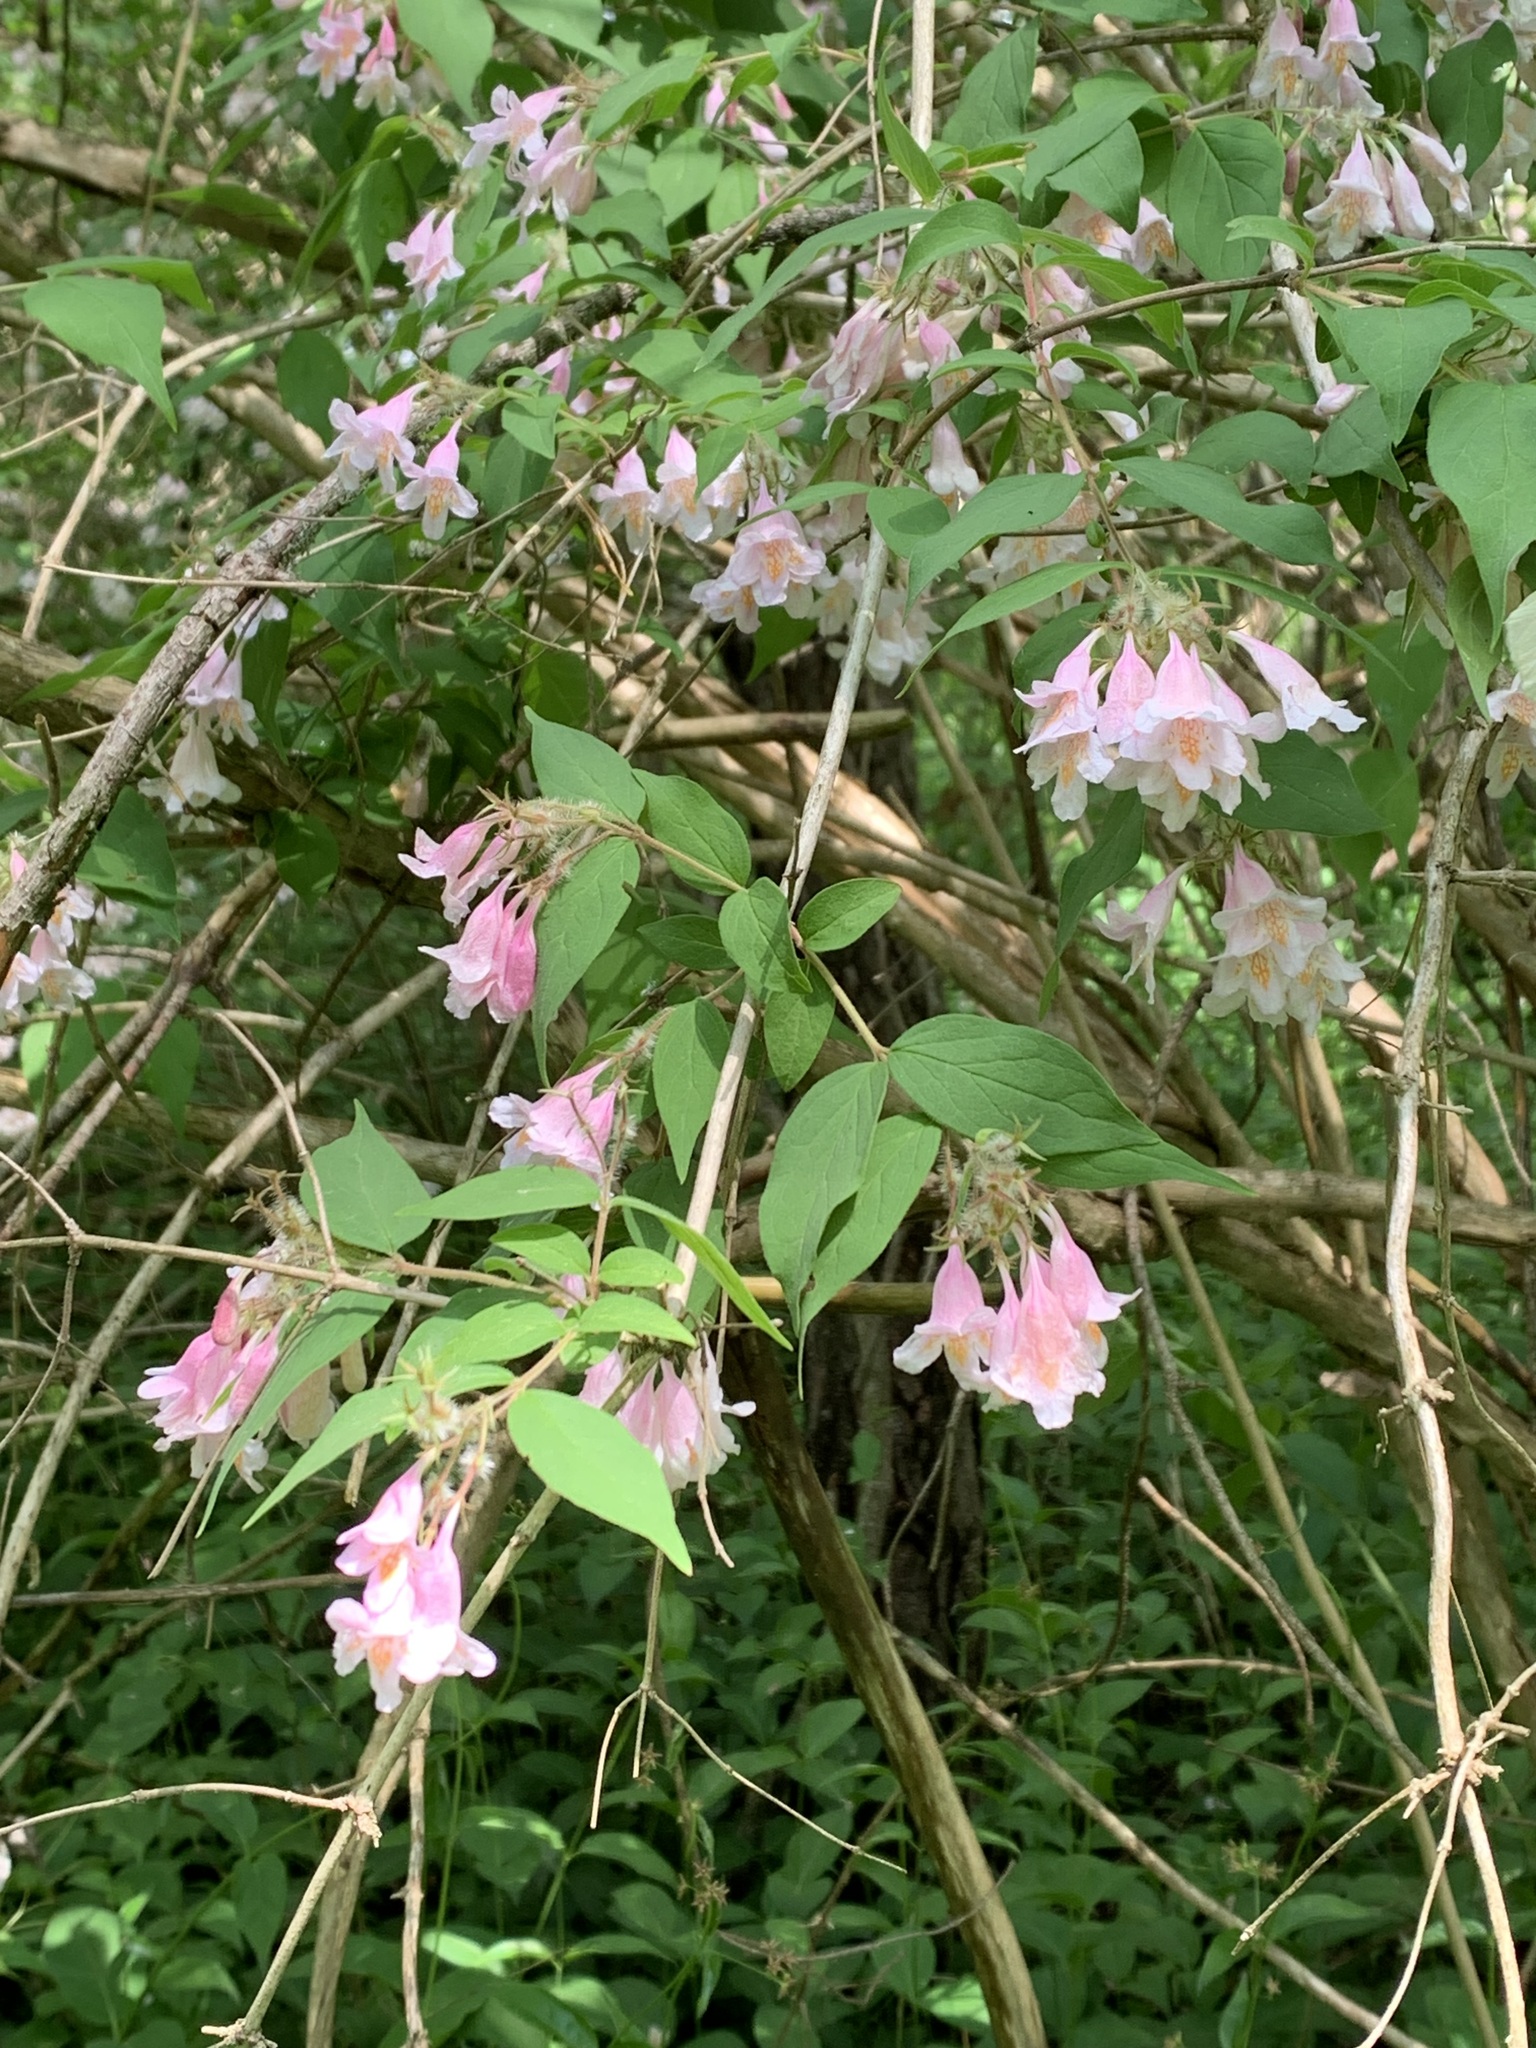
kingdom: Plantae
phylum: Tracheophyta
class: Magnoliopsida
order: Dipsacales
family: Caprifoliaceae
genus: Kolkwitzia
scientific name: Kolkwitzia amabilis
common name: Beautybush
